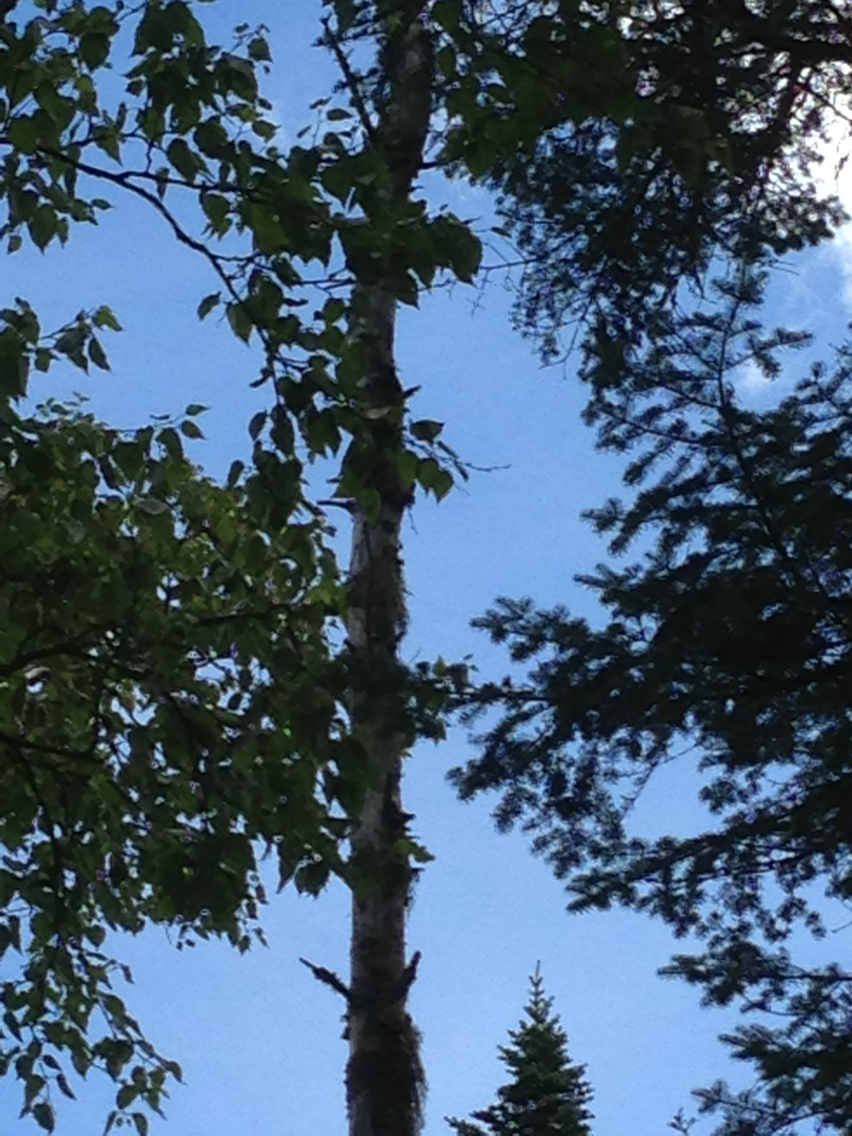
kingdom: Animalia
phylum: Chordata
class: Aves
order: Piciformes
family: Picidae
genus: Picoides
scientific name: Picoides arcticus
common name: Black-backed woodpecker
